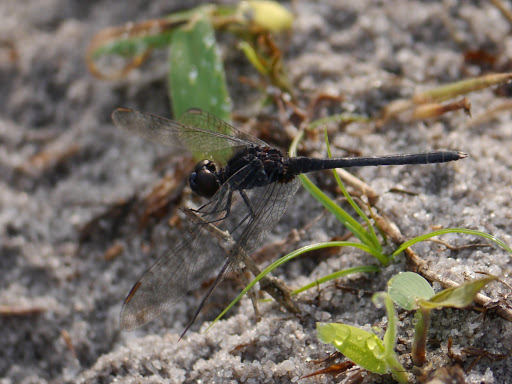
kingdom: Animalia
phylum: Arthropoda
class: Insecta
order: Odonata
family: Libellulidae
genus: Diplacodes
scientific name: Diplacodes lefebvrii
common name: Black percher
